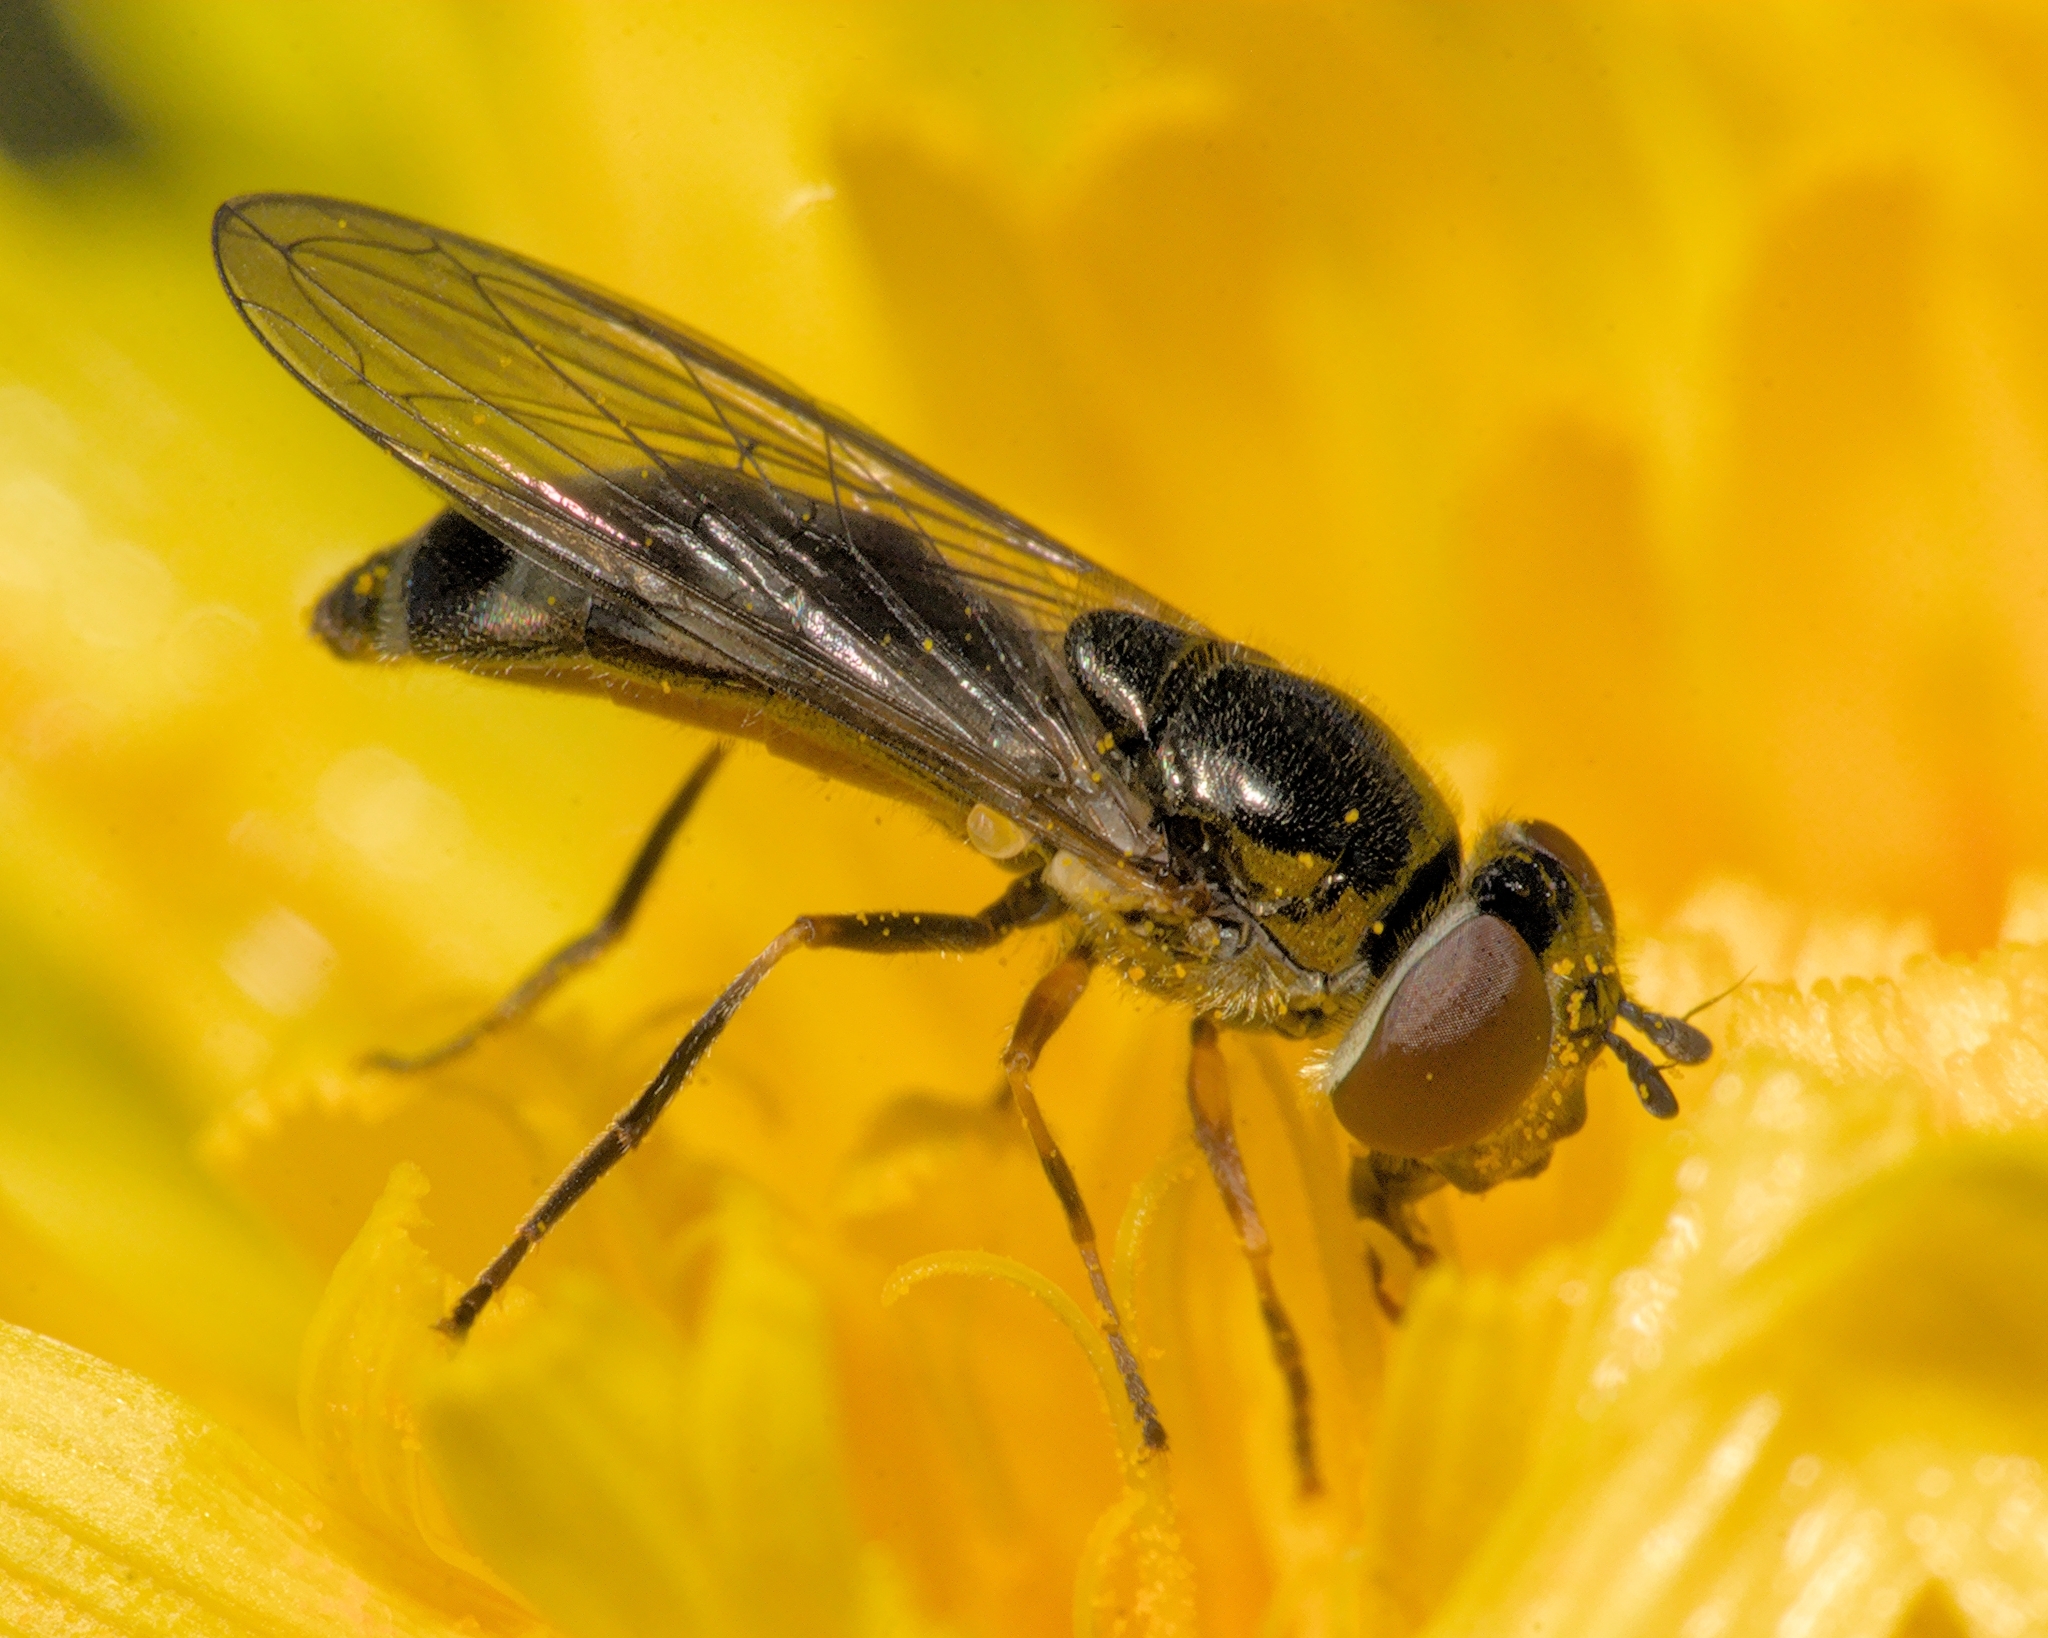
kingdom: Animalia
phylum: Arthropoda
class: Insecta
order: Diptera
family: Syrphidae
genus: Platycheirus
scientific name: Platycheirus albimanus
